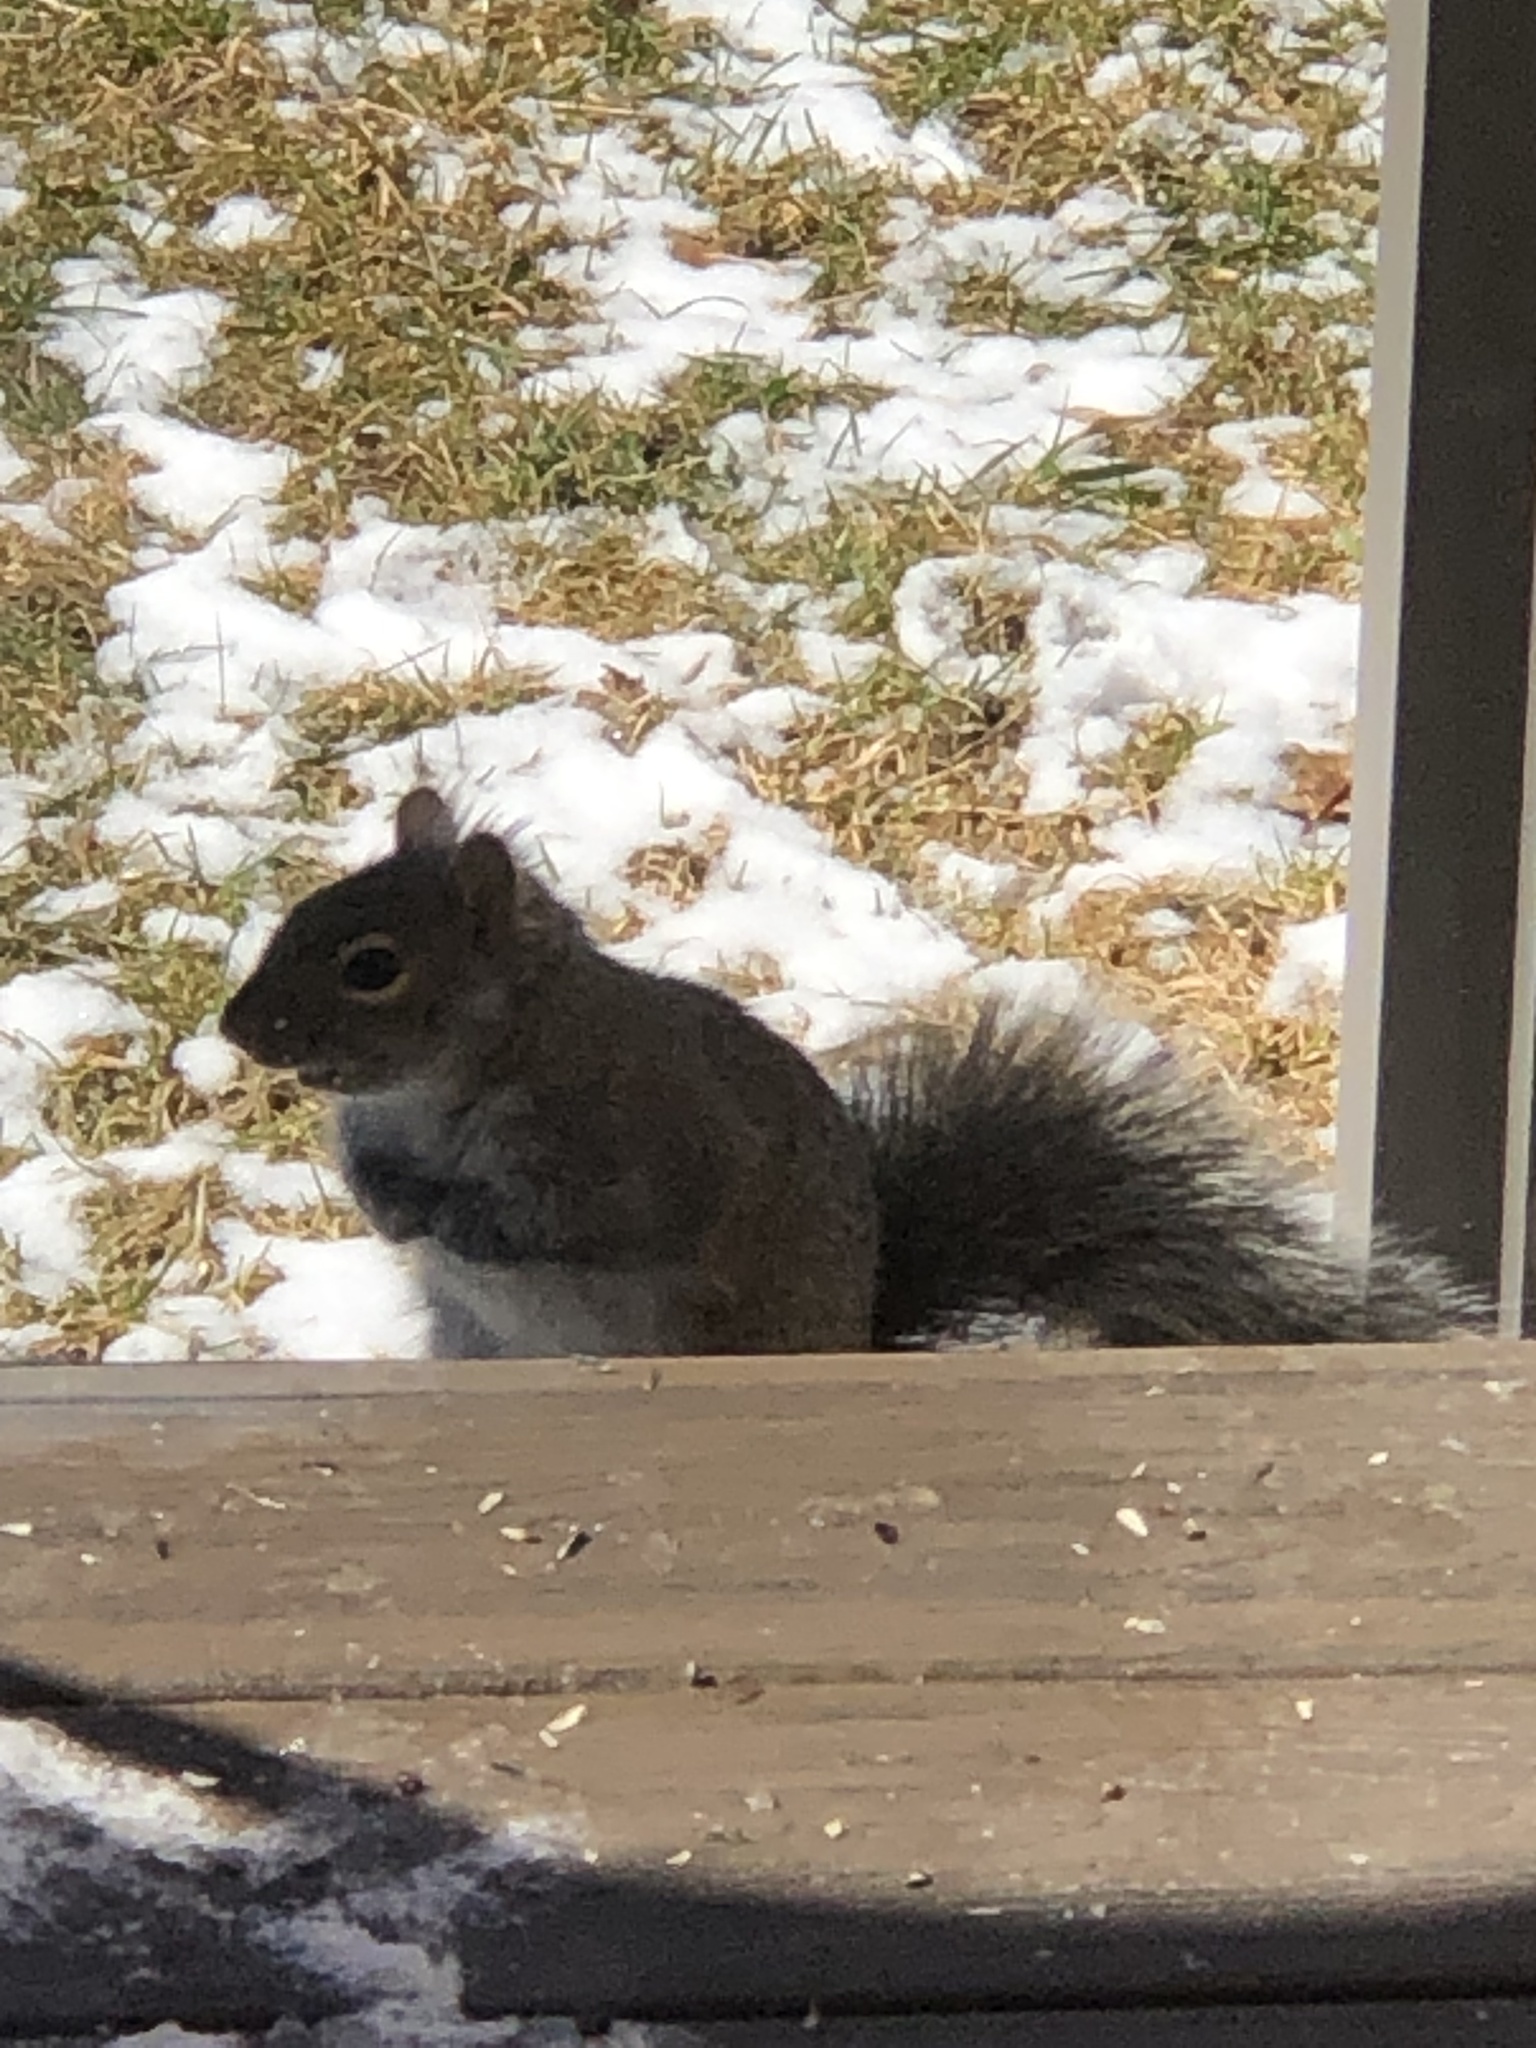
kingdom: Animalia
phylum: Chordata
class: Mammalia
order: Rodentia
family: Sciuridae
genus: Sciurus
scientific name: Sciurus carolinensis
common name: Eastern gray squirrel
